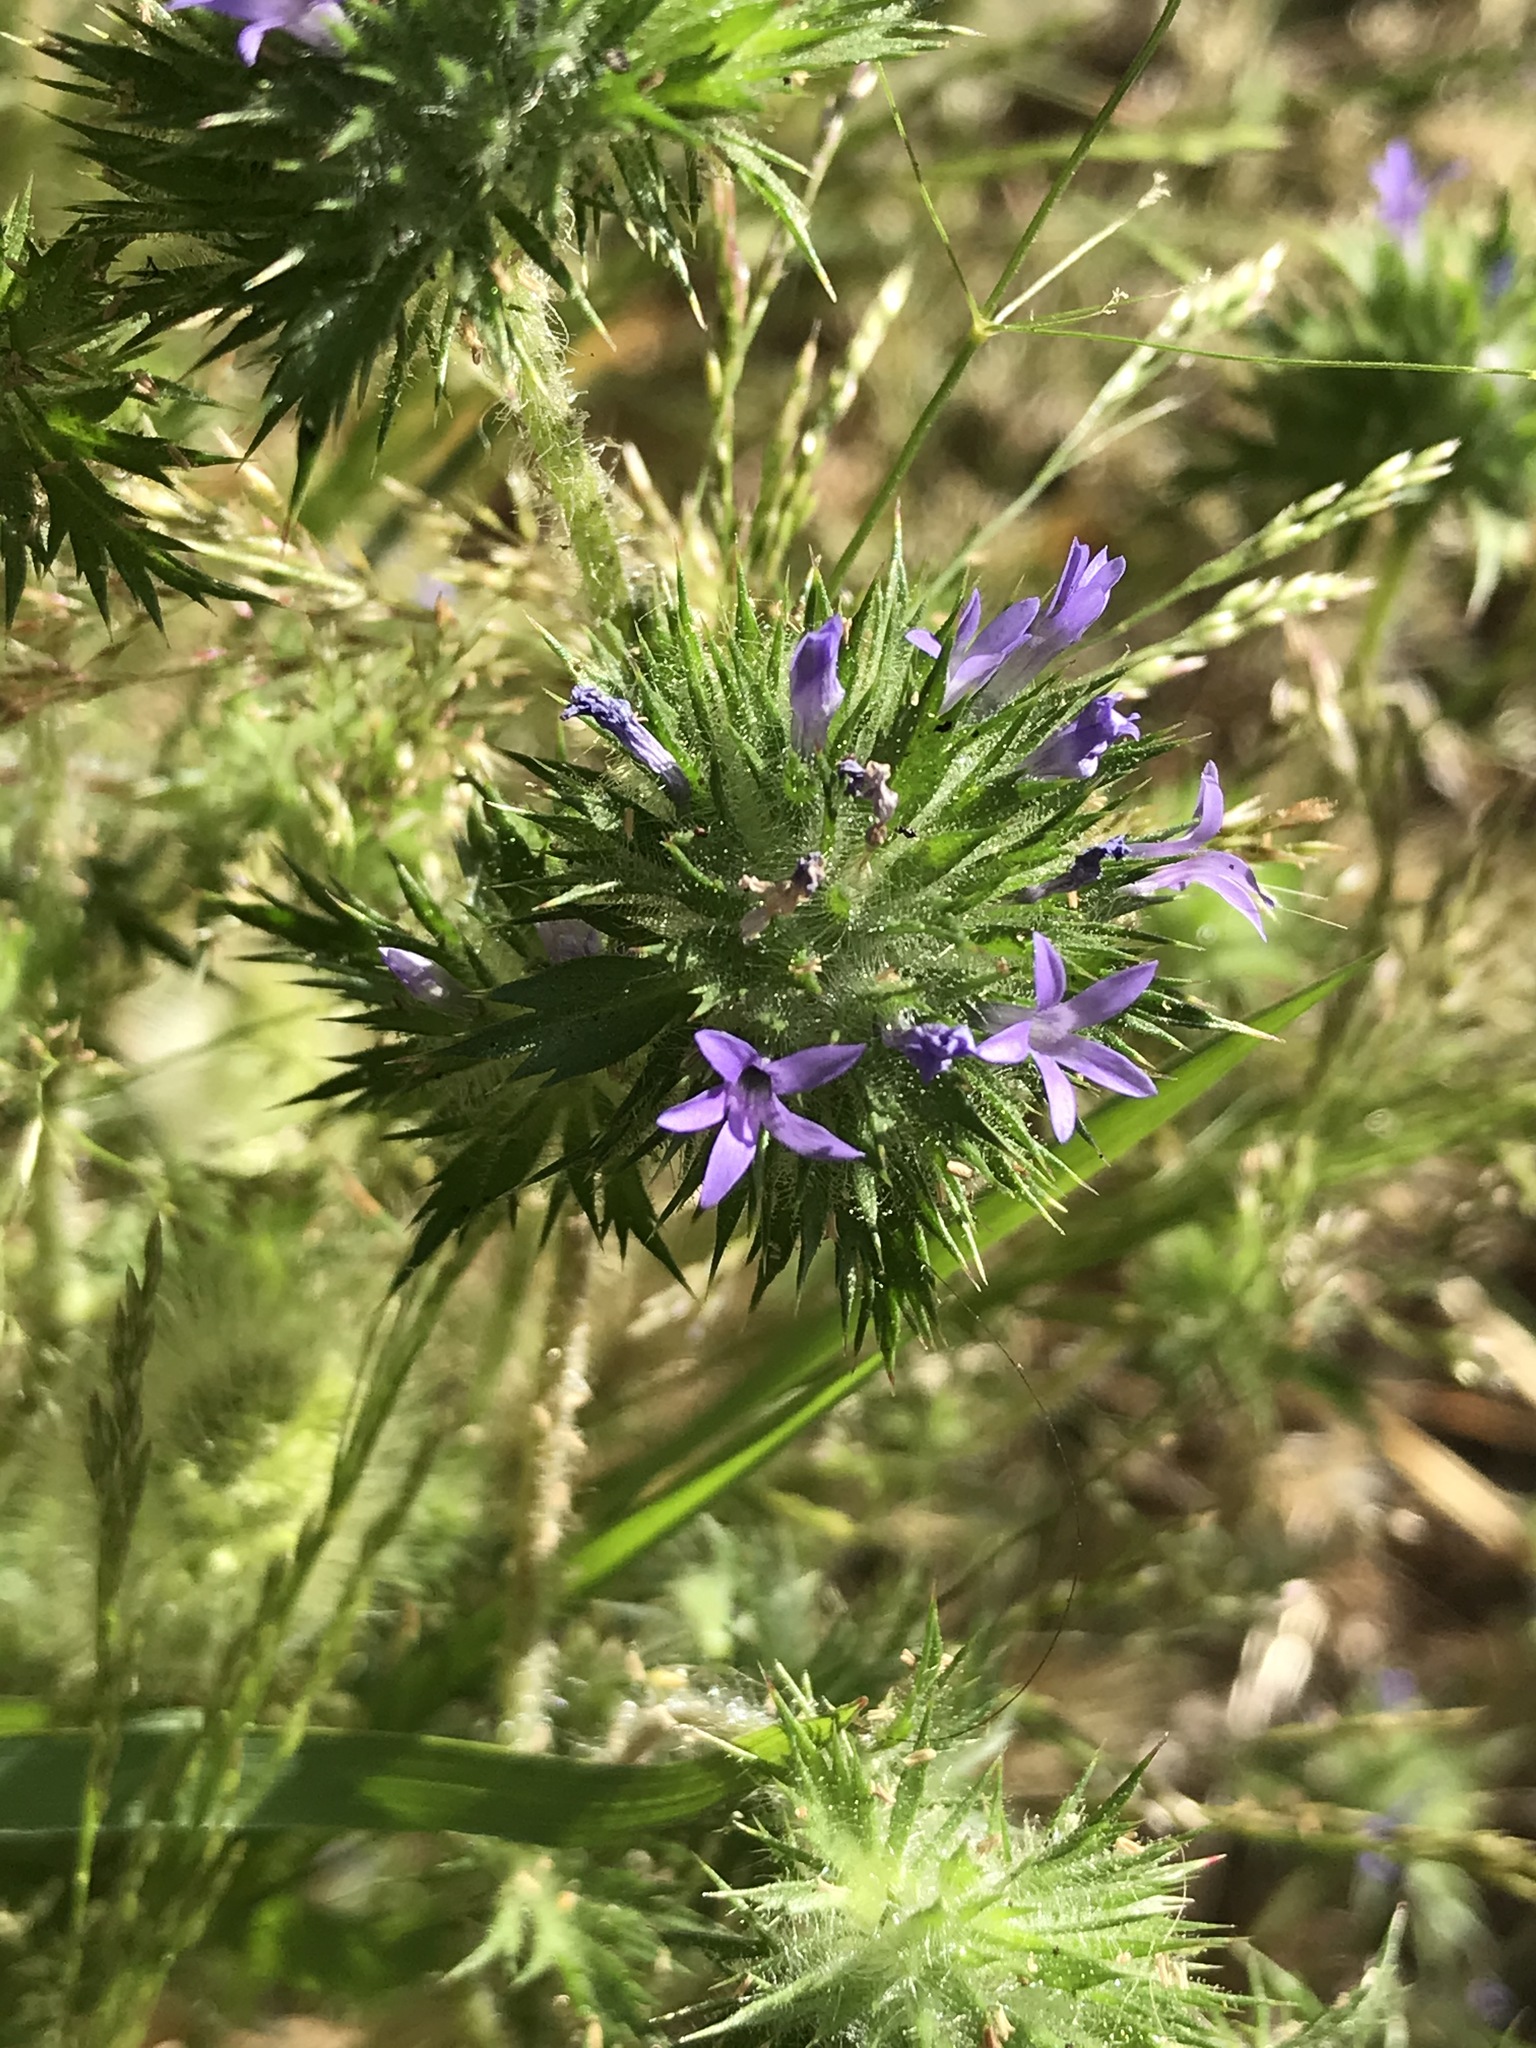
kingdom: Plantae
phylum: Tracheophyta
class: Magnoliopsida
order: Ericales
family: Polemoniaceae
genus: Navarretia
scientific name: Navarretia squarrosa
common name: Skunkweed
